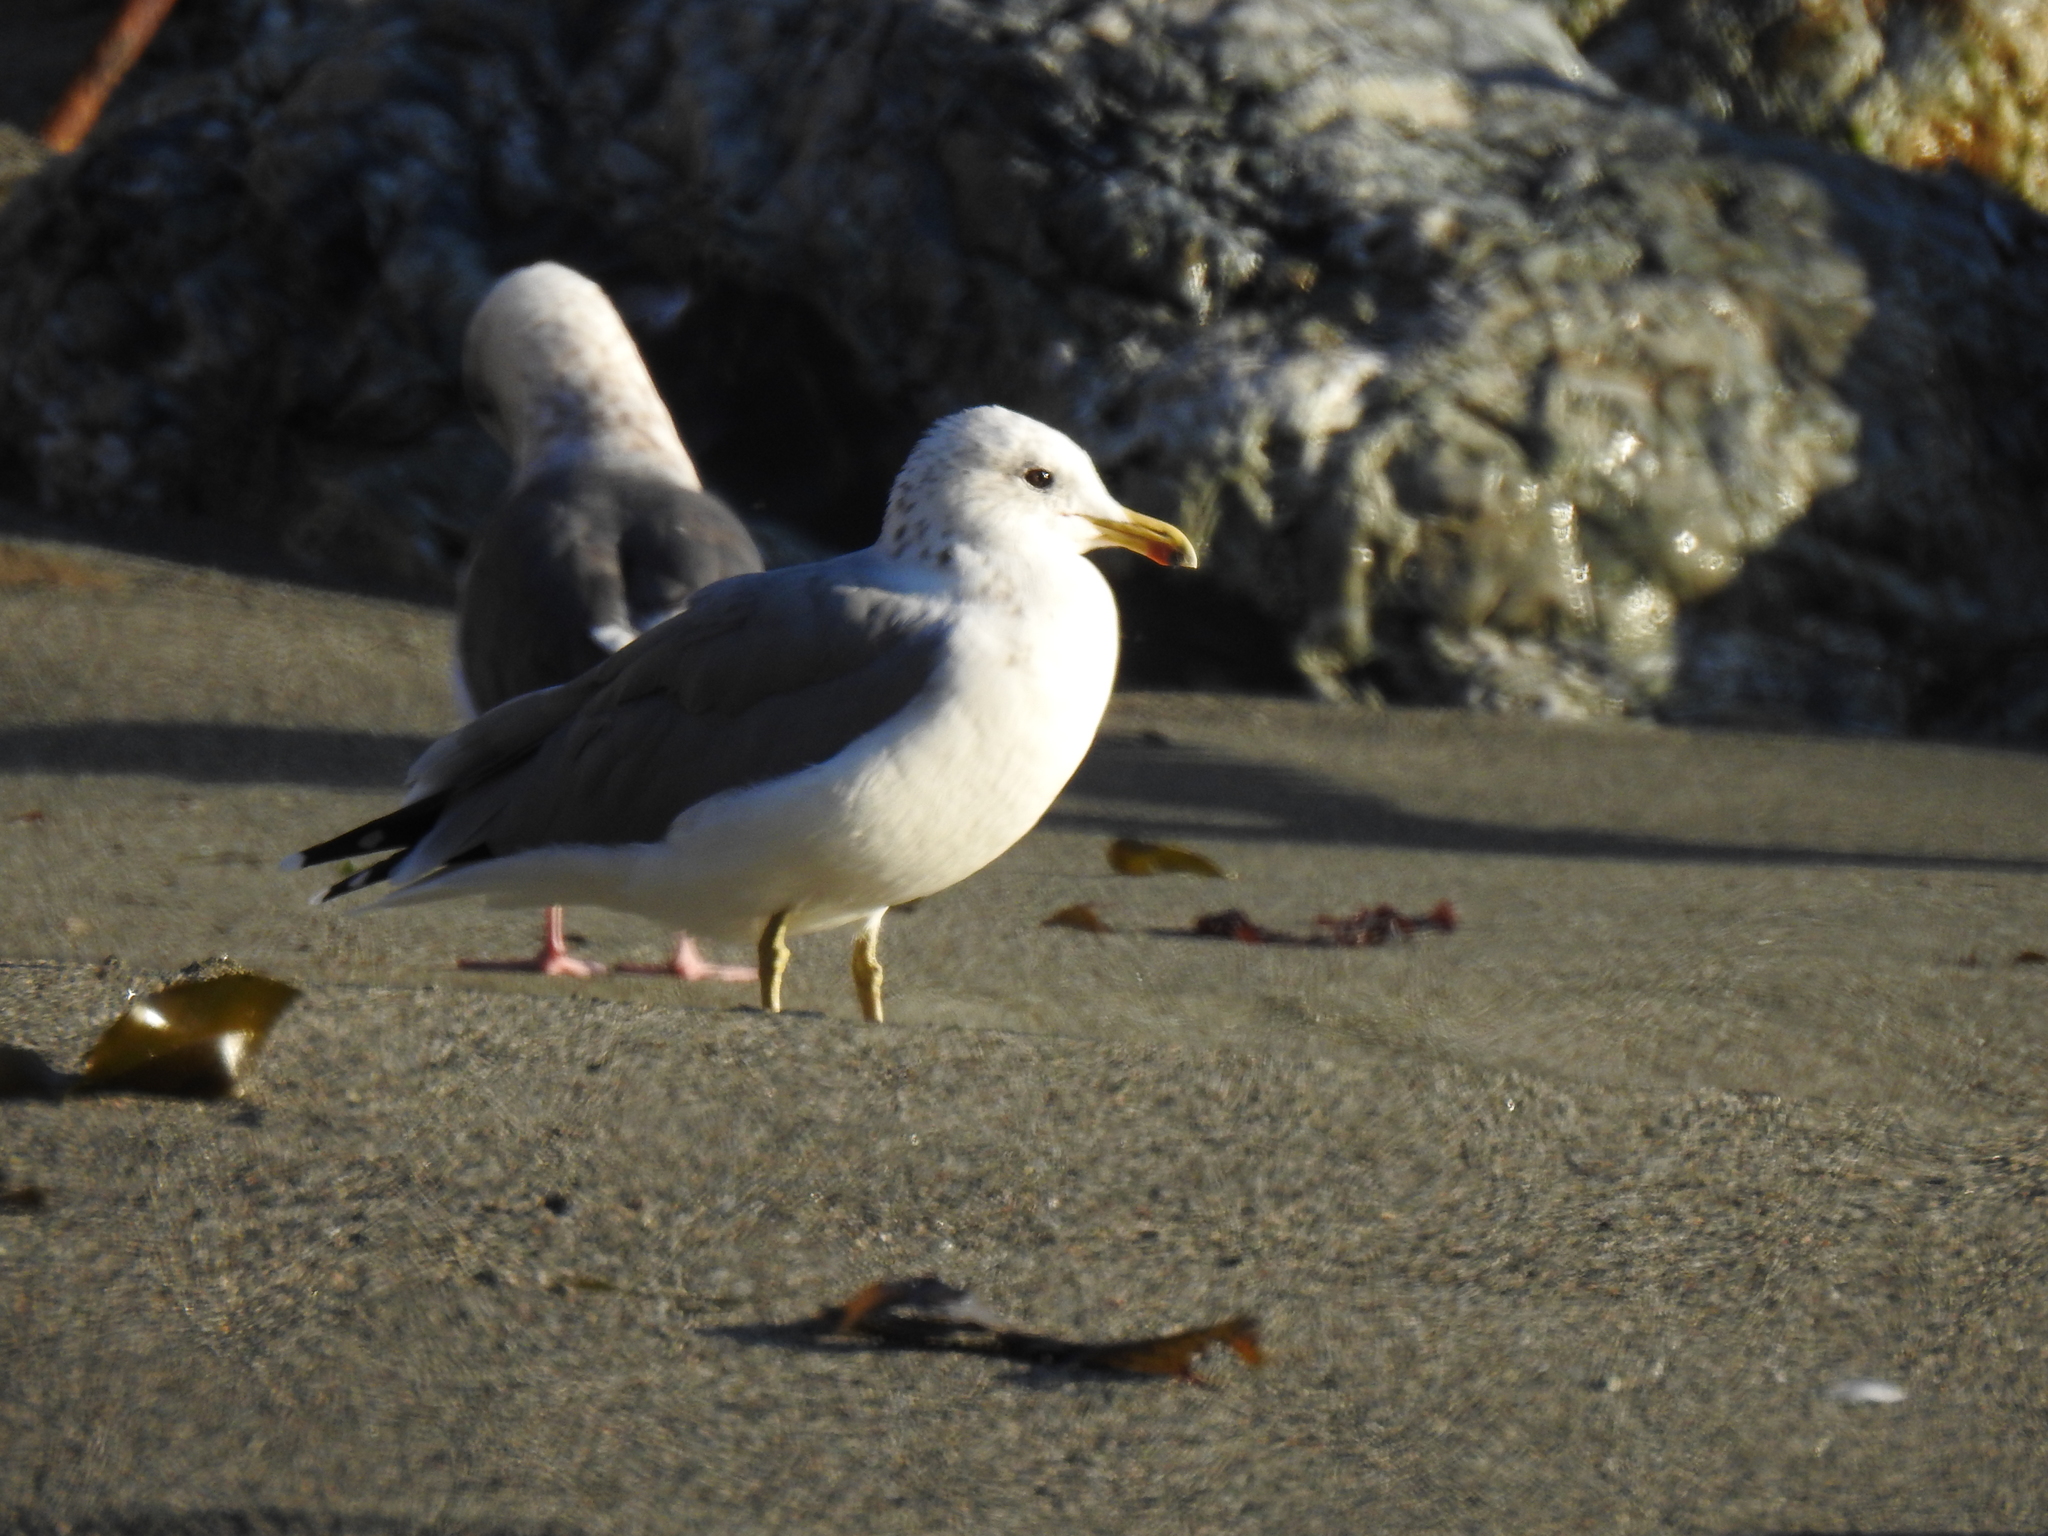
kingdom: Animalia
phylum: Chordata
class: Aves
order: Charadriiformes
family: Laridae
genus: Larus
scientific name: Larus californicus
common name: California gull
